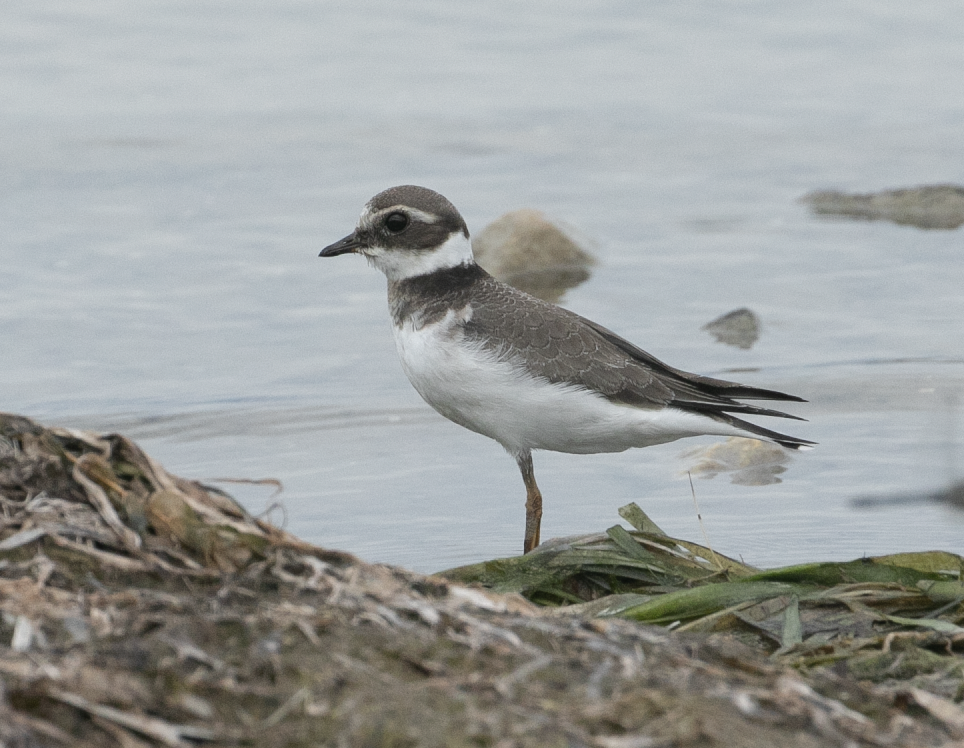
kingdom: Animalia
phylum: Chordata
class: Aves
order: Charadriiformes
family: Charadriidae
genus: Charadrius
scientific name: Charadrius hiaticula
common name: Common ringed plover
